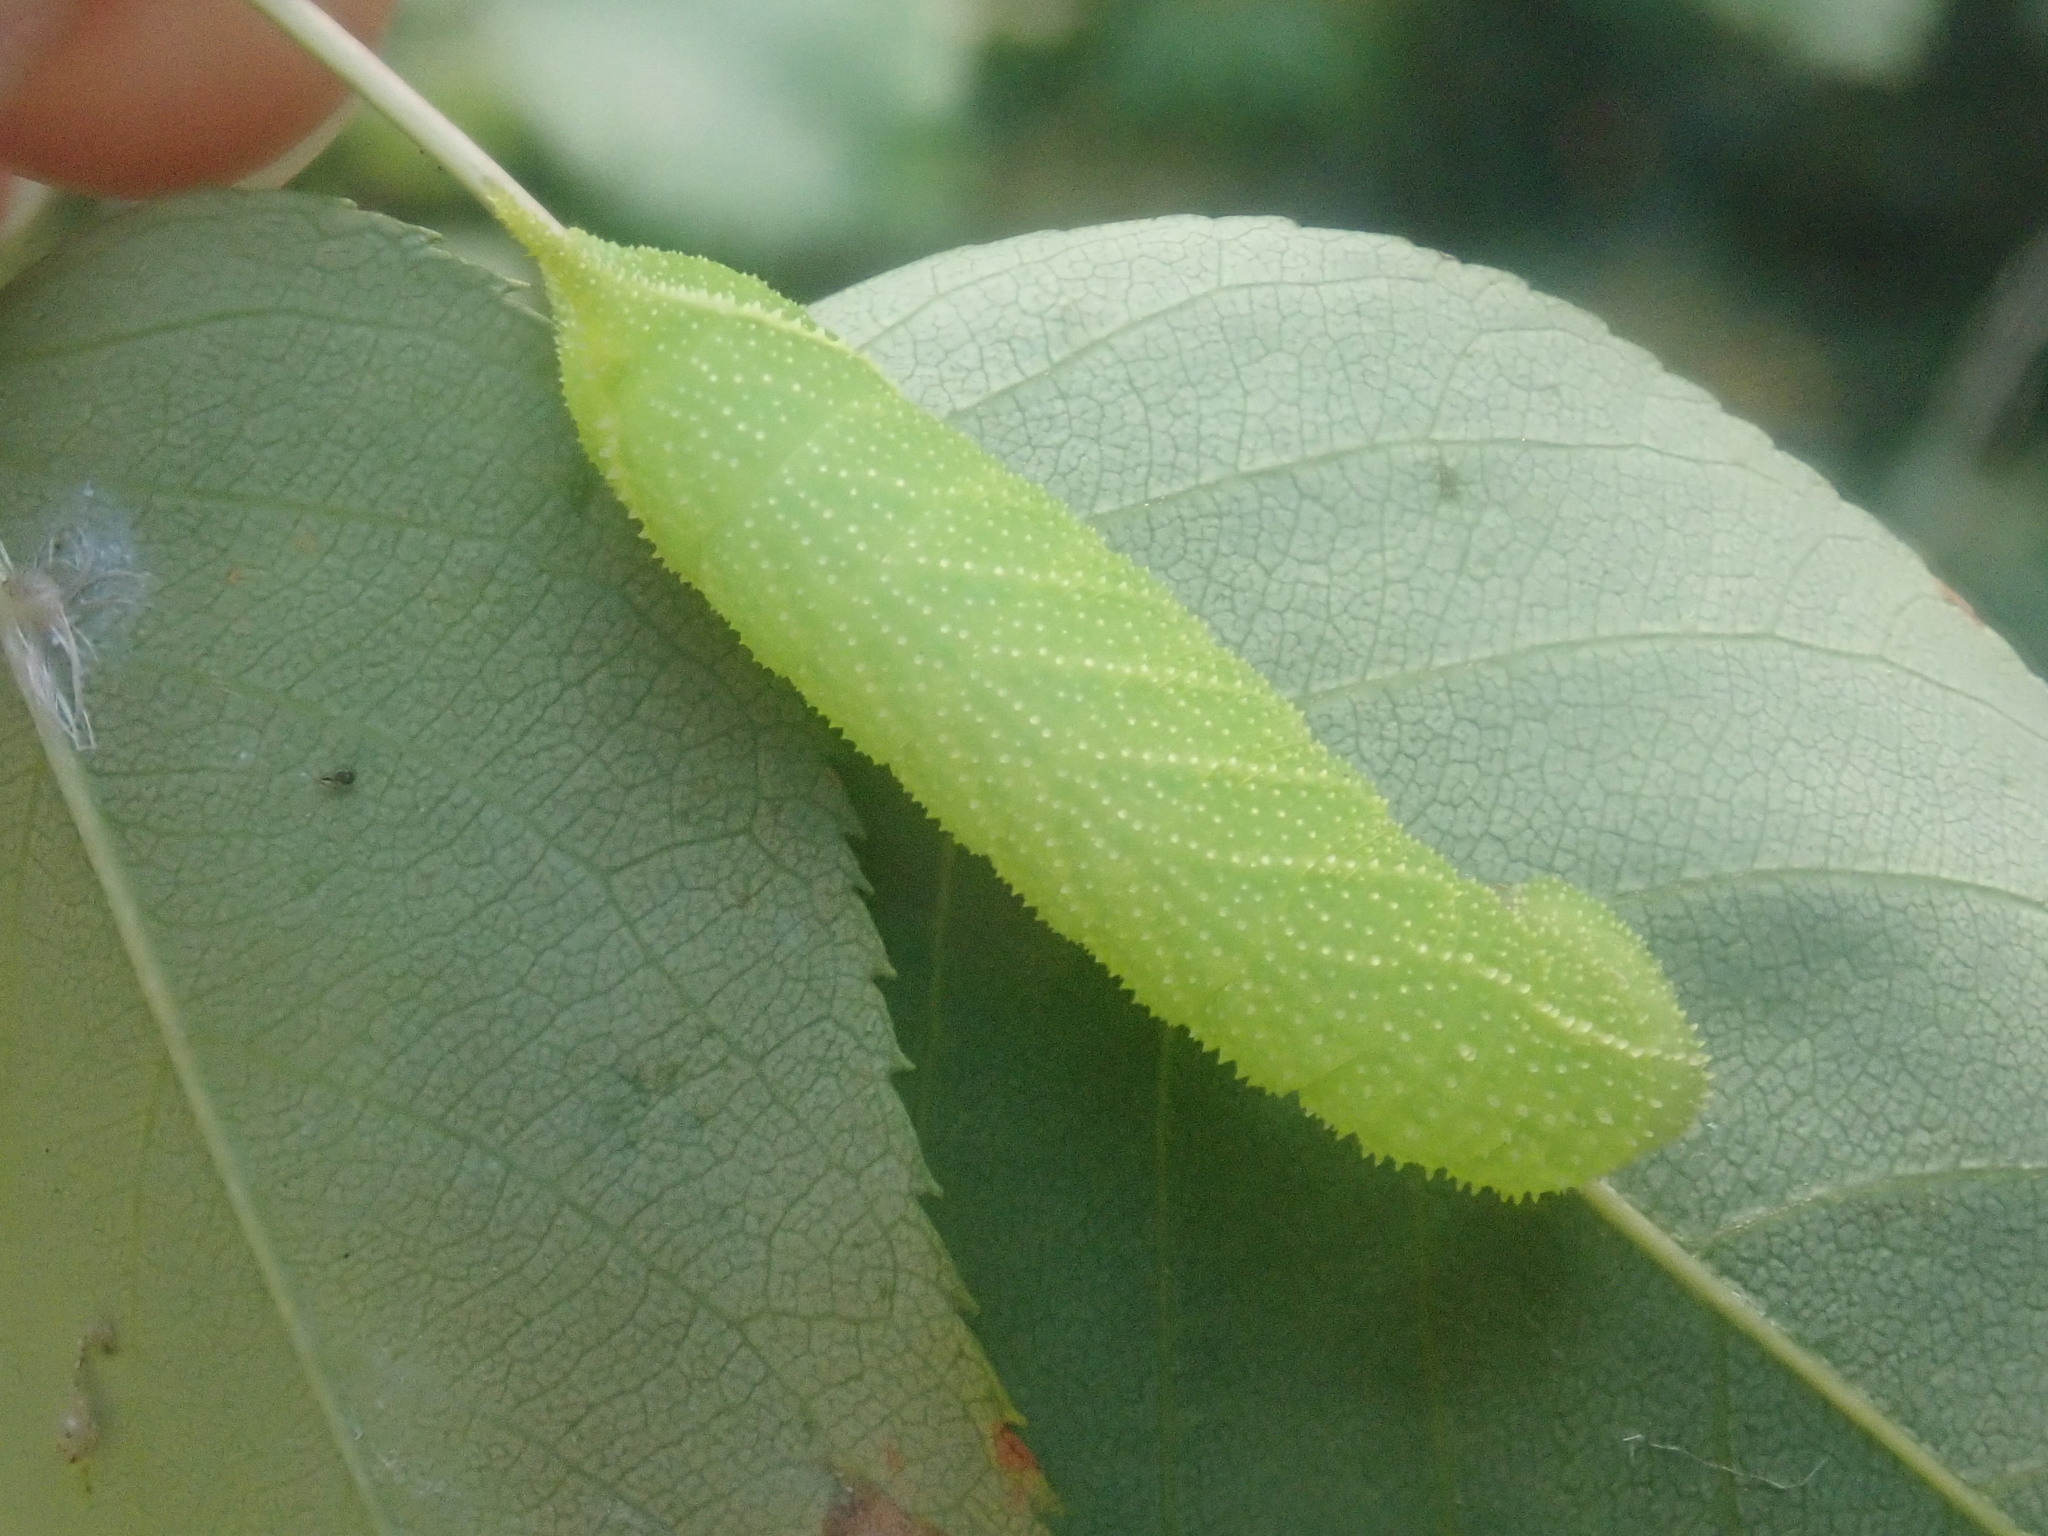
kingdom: Animalia
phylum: Arthropoda
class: Insecta
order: Lepidoptera
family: Sphingidae
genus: Paonias
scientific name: Paonias excaecata
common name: Blind-eyed sphinx
